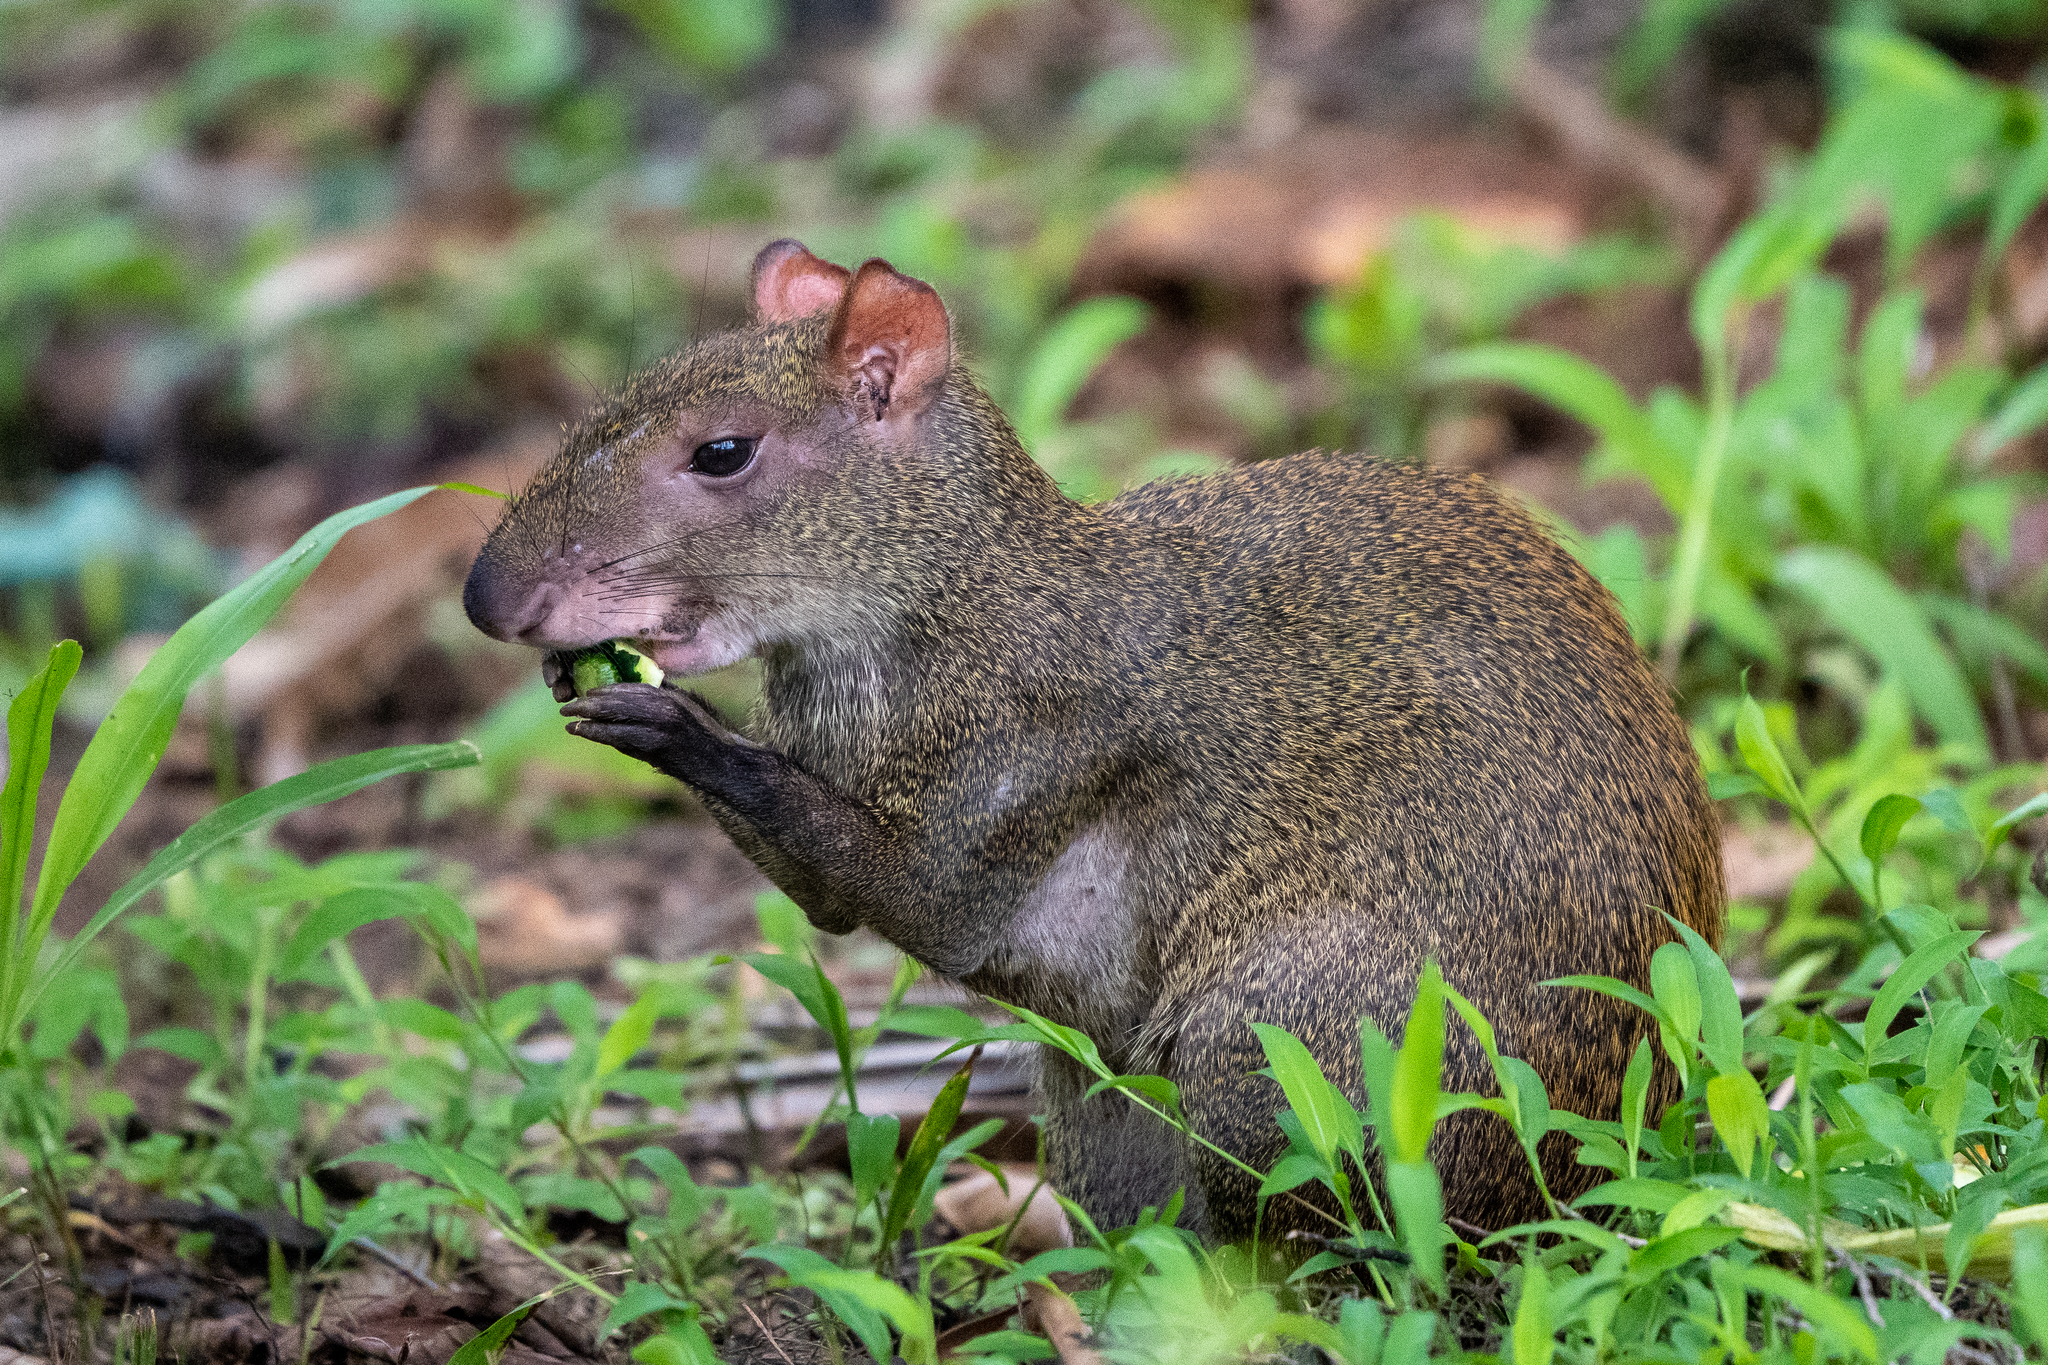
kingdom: Animalia
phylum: Chordata
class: Mammalia
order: Rodentia
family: Dasyproctidae
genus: Dasyprocta
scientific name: Dasyprocta punctata
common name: Central american agouti
